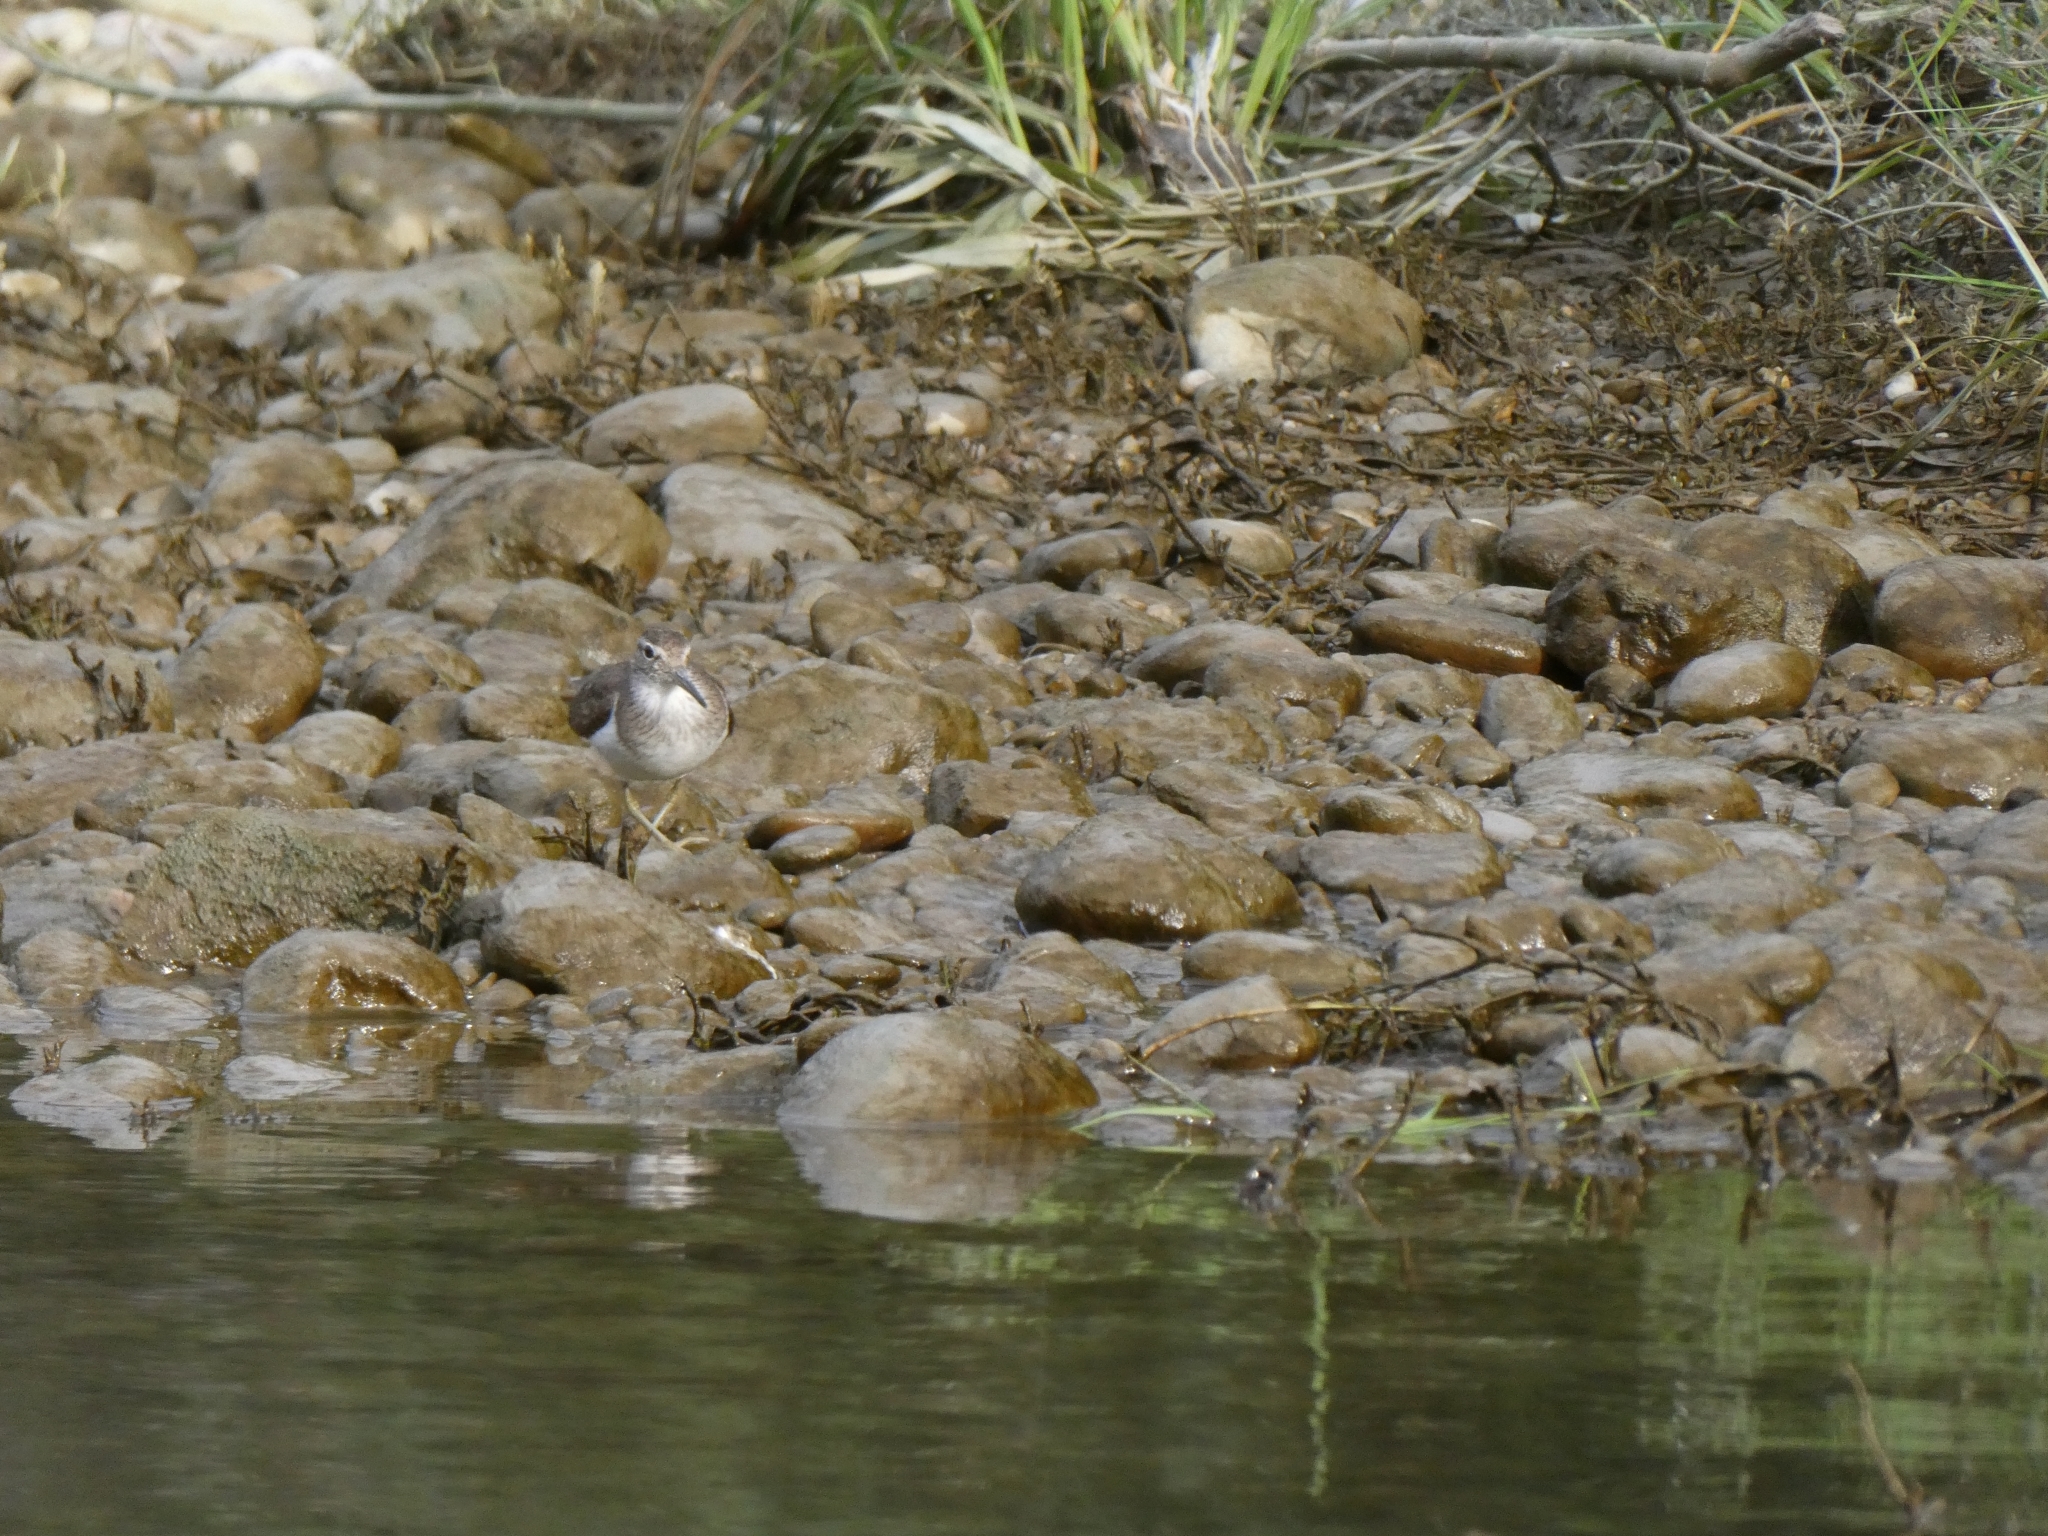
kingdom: Animalia
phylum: Chordata
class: Aves
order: Charadriiformes
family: Scolopacidae
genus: Actitis
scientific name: Actitis hypoleucos
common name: Common sandpiper
